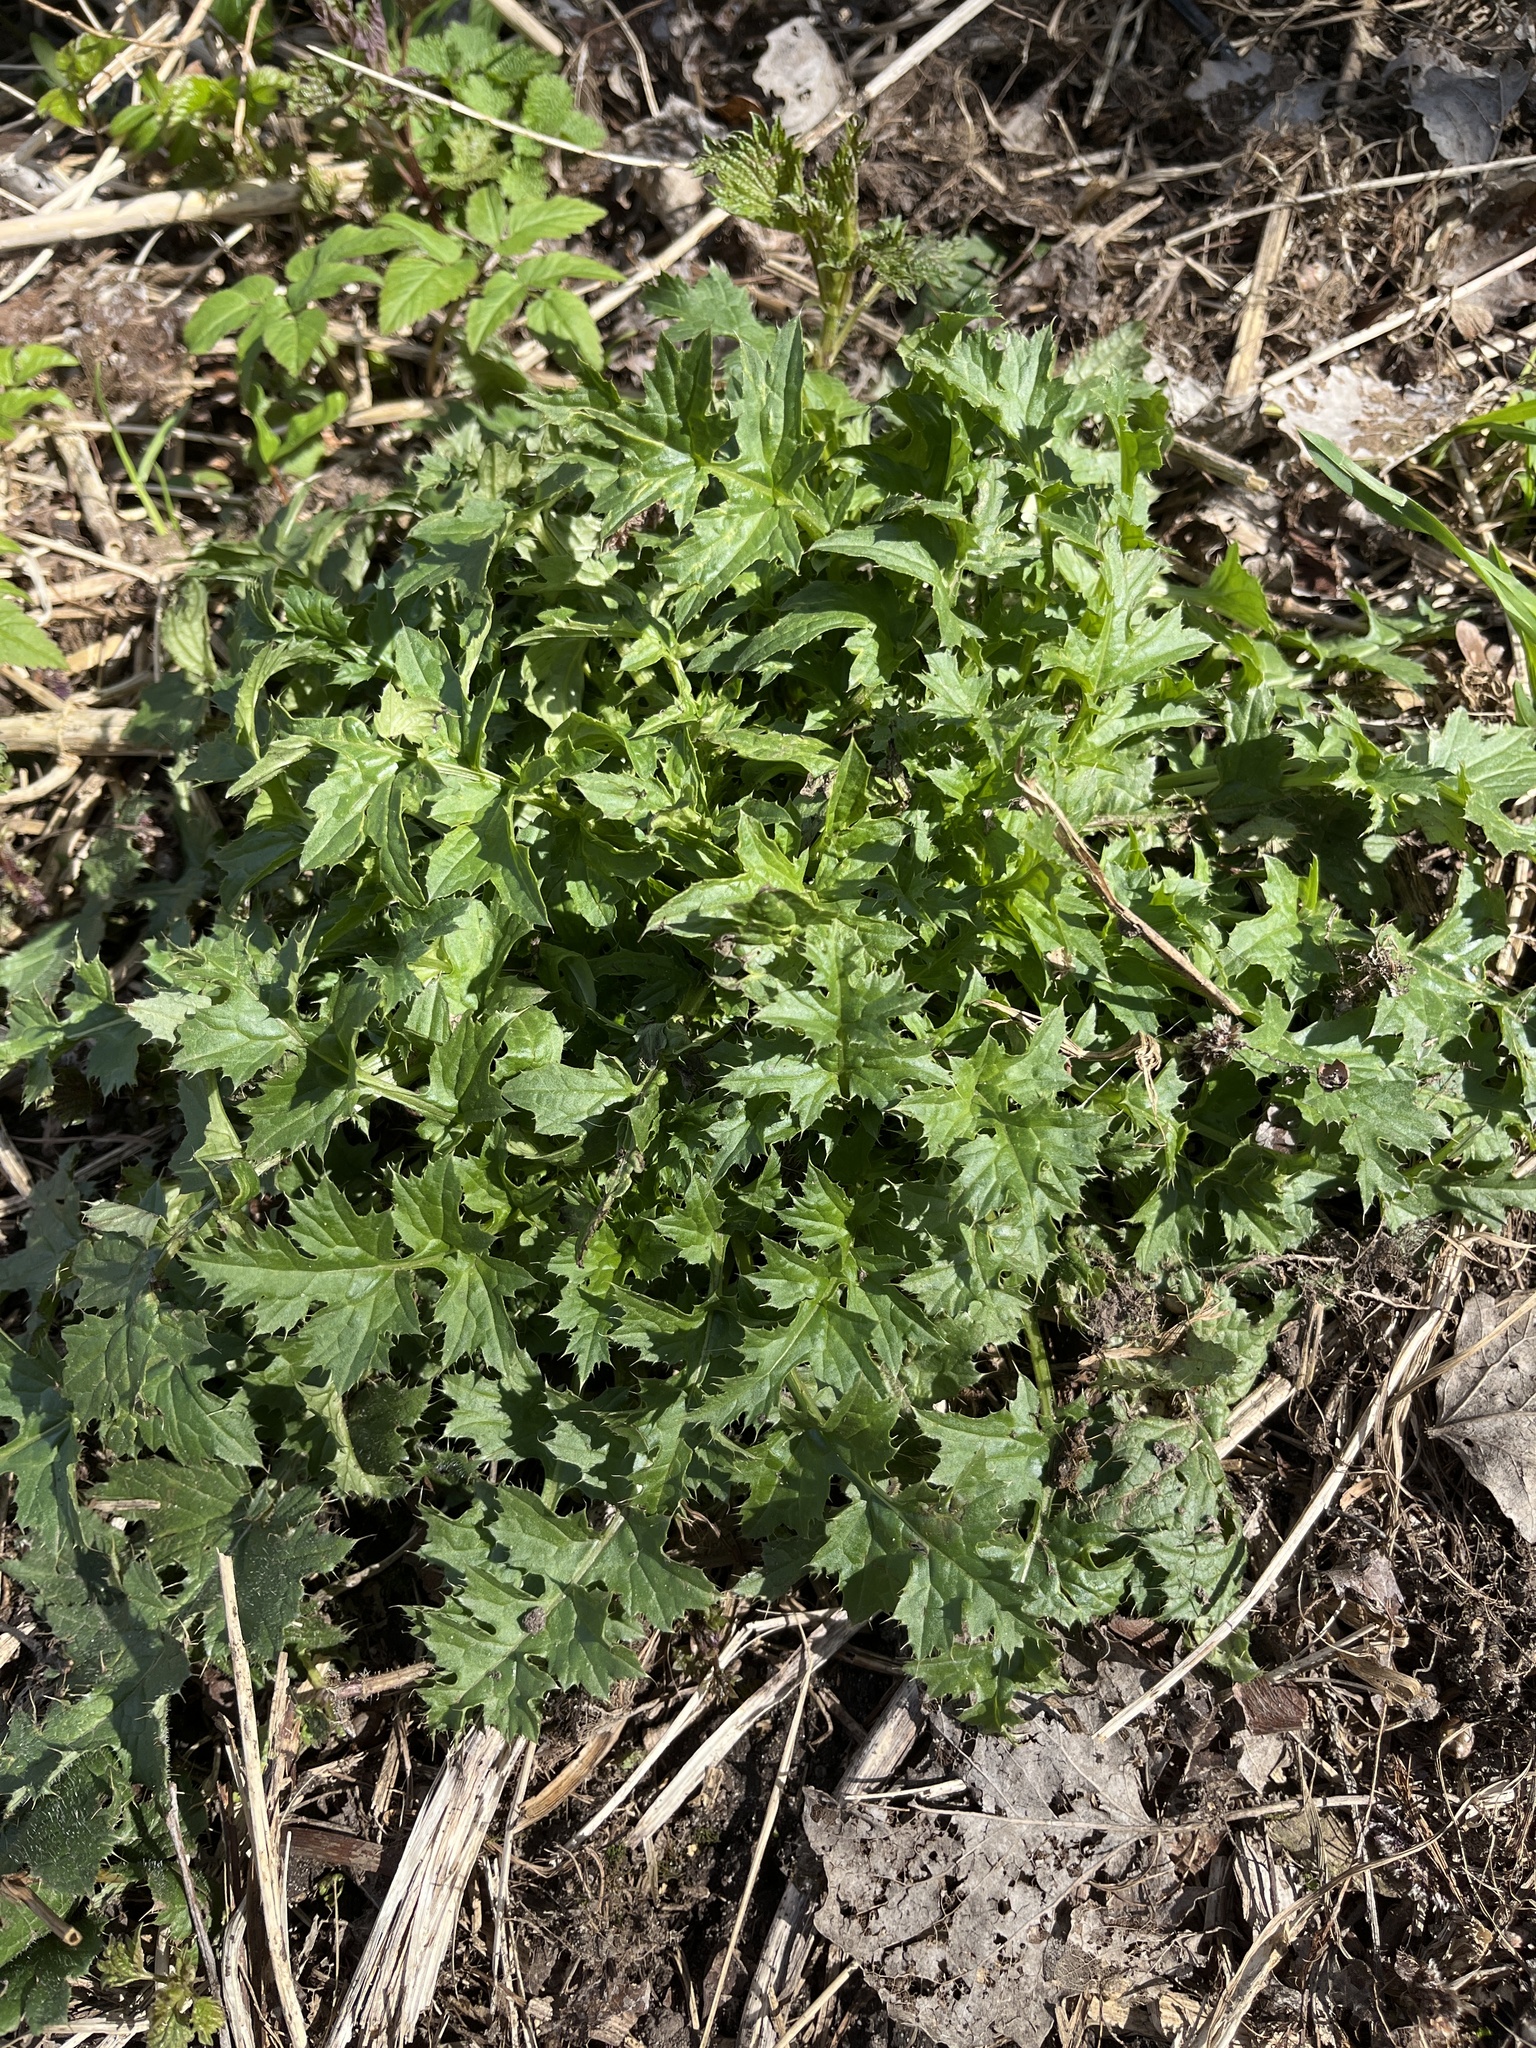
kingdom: Plantae
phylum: Tracheophyta
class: Magnoliopsida
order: Asterales
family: Asteraceae
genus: Carduus
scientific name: Carduus crispus
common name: Welted thistle
